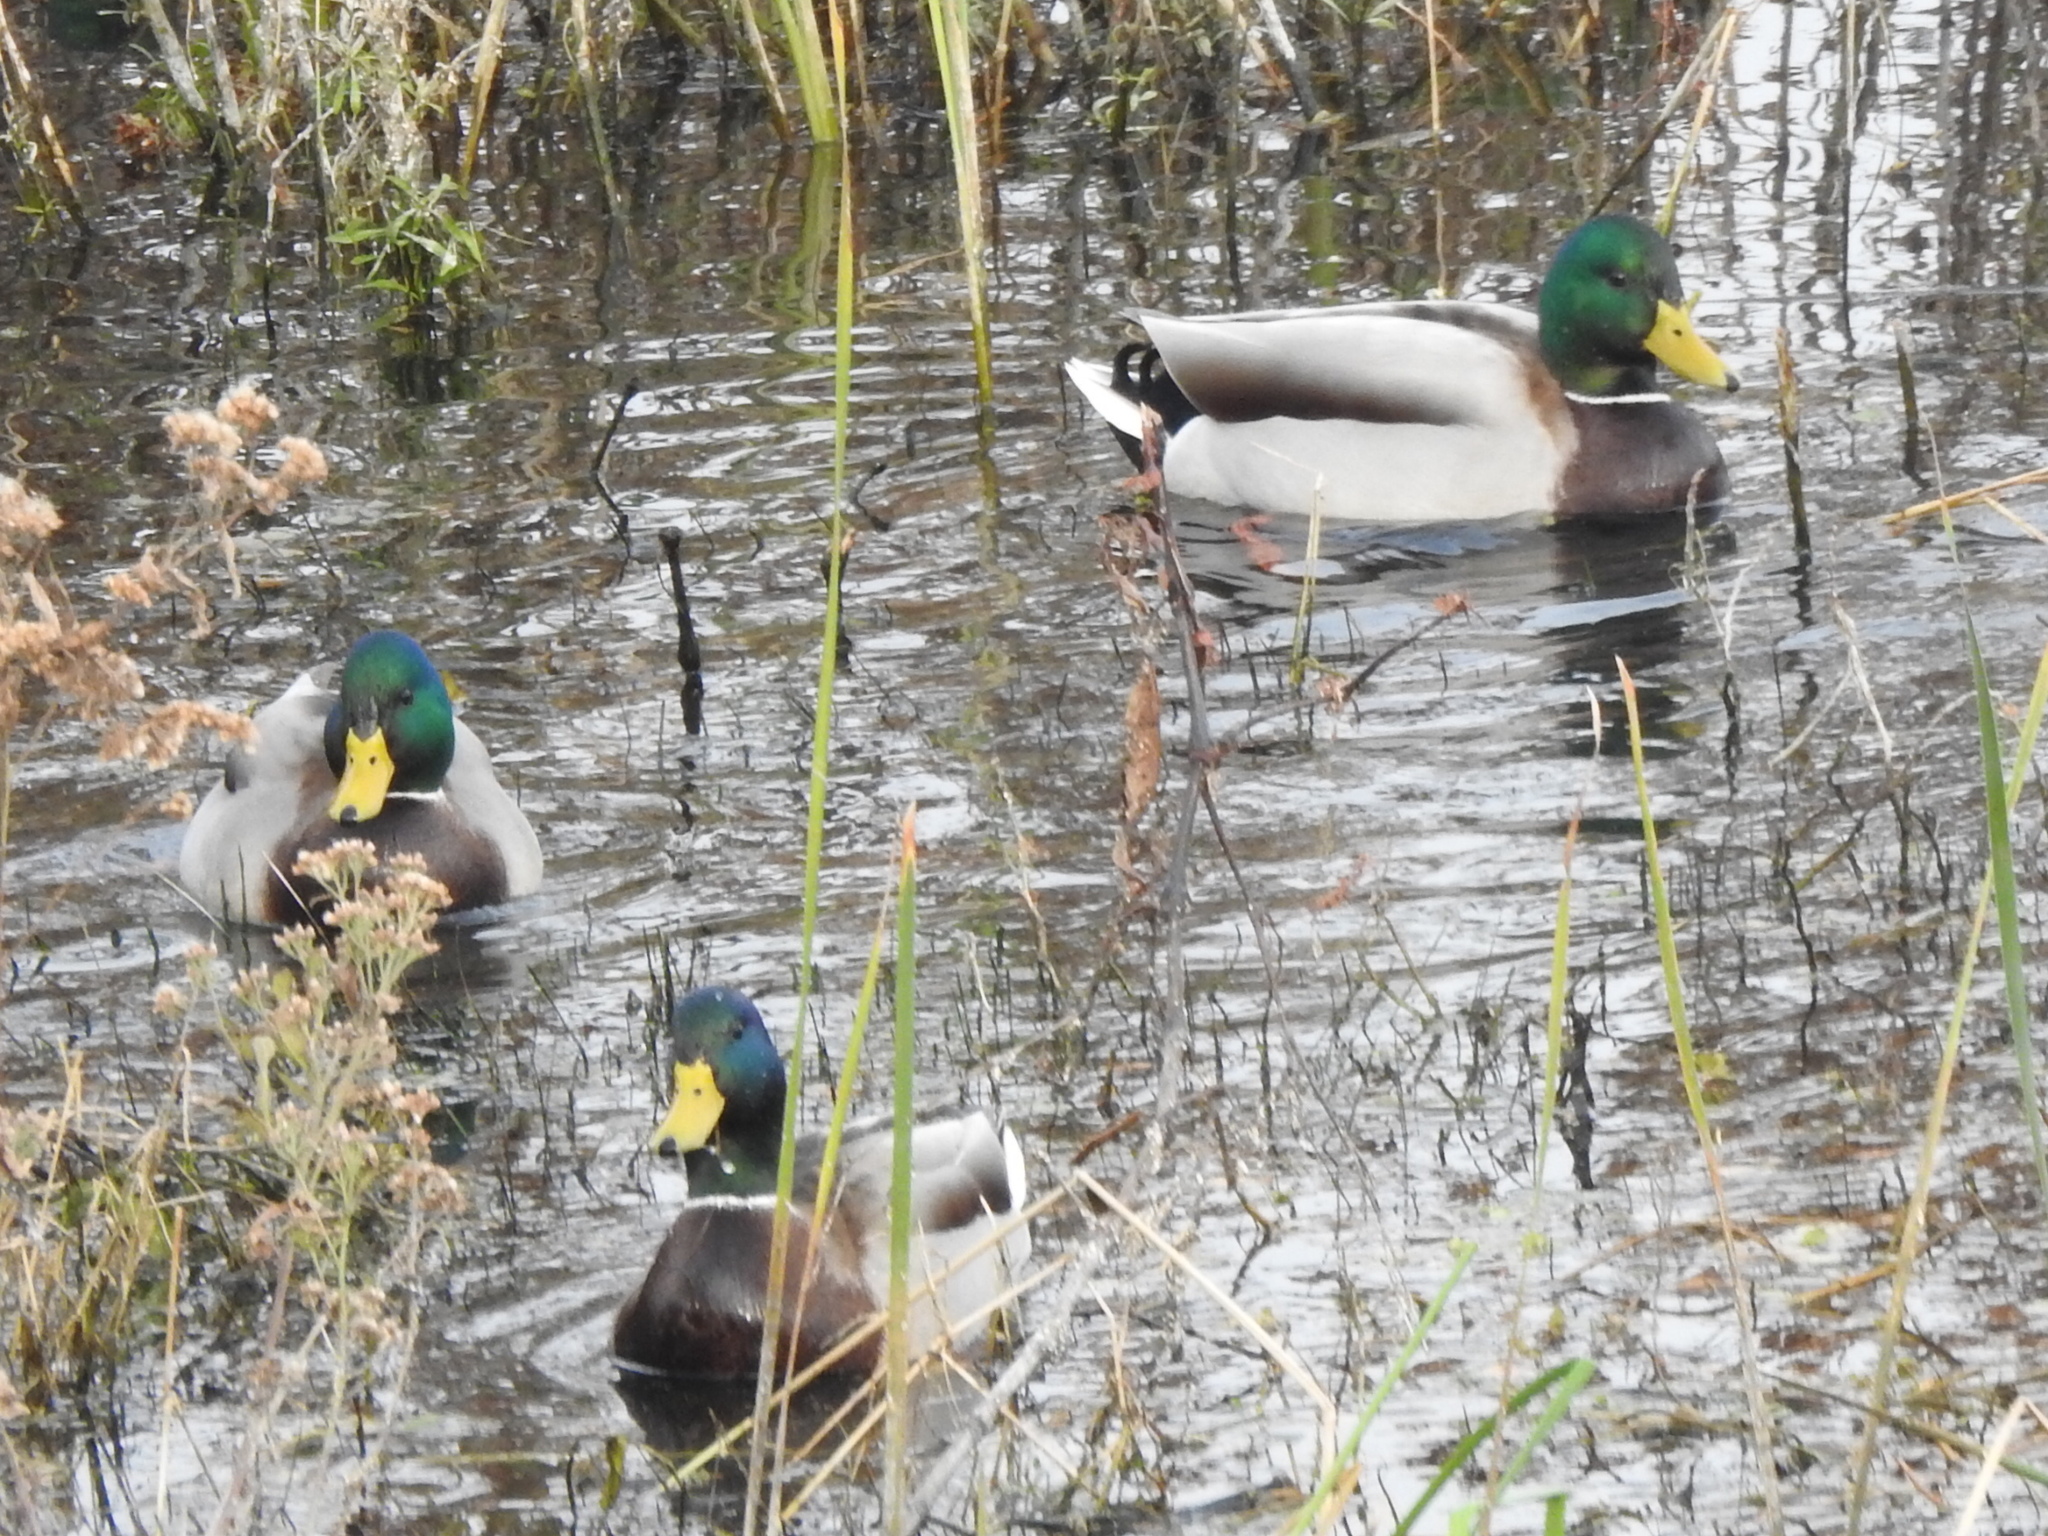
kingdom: Animalia
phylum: Chordata
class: Aves
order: Anseriformes
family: Anatidae
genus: Anas
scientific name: Anas platyrhynchos
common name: Mallard
